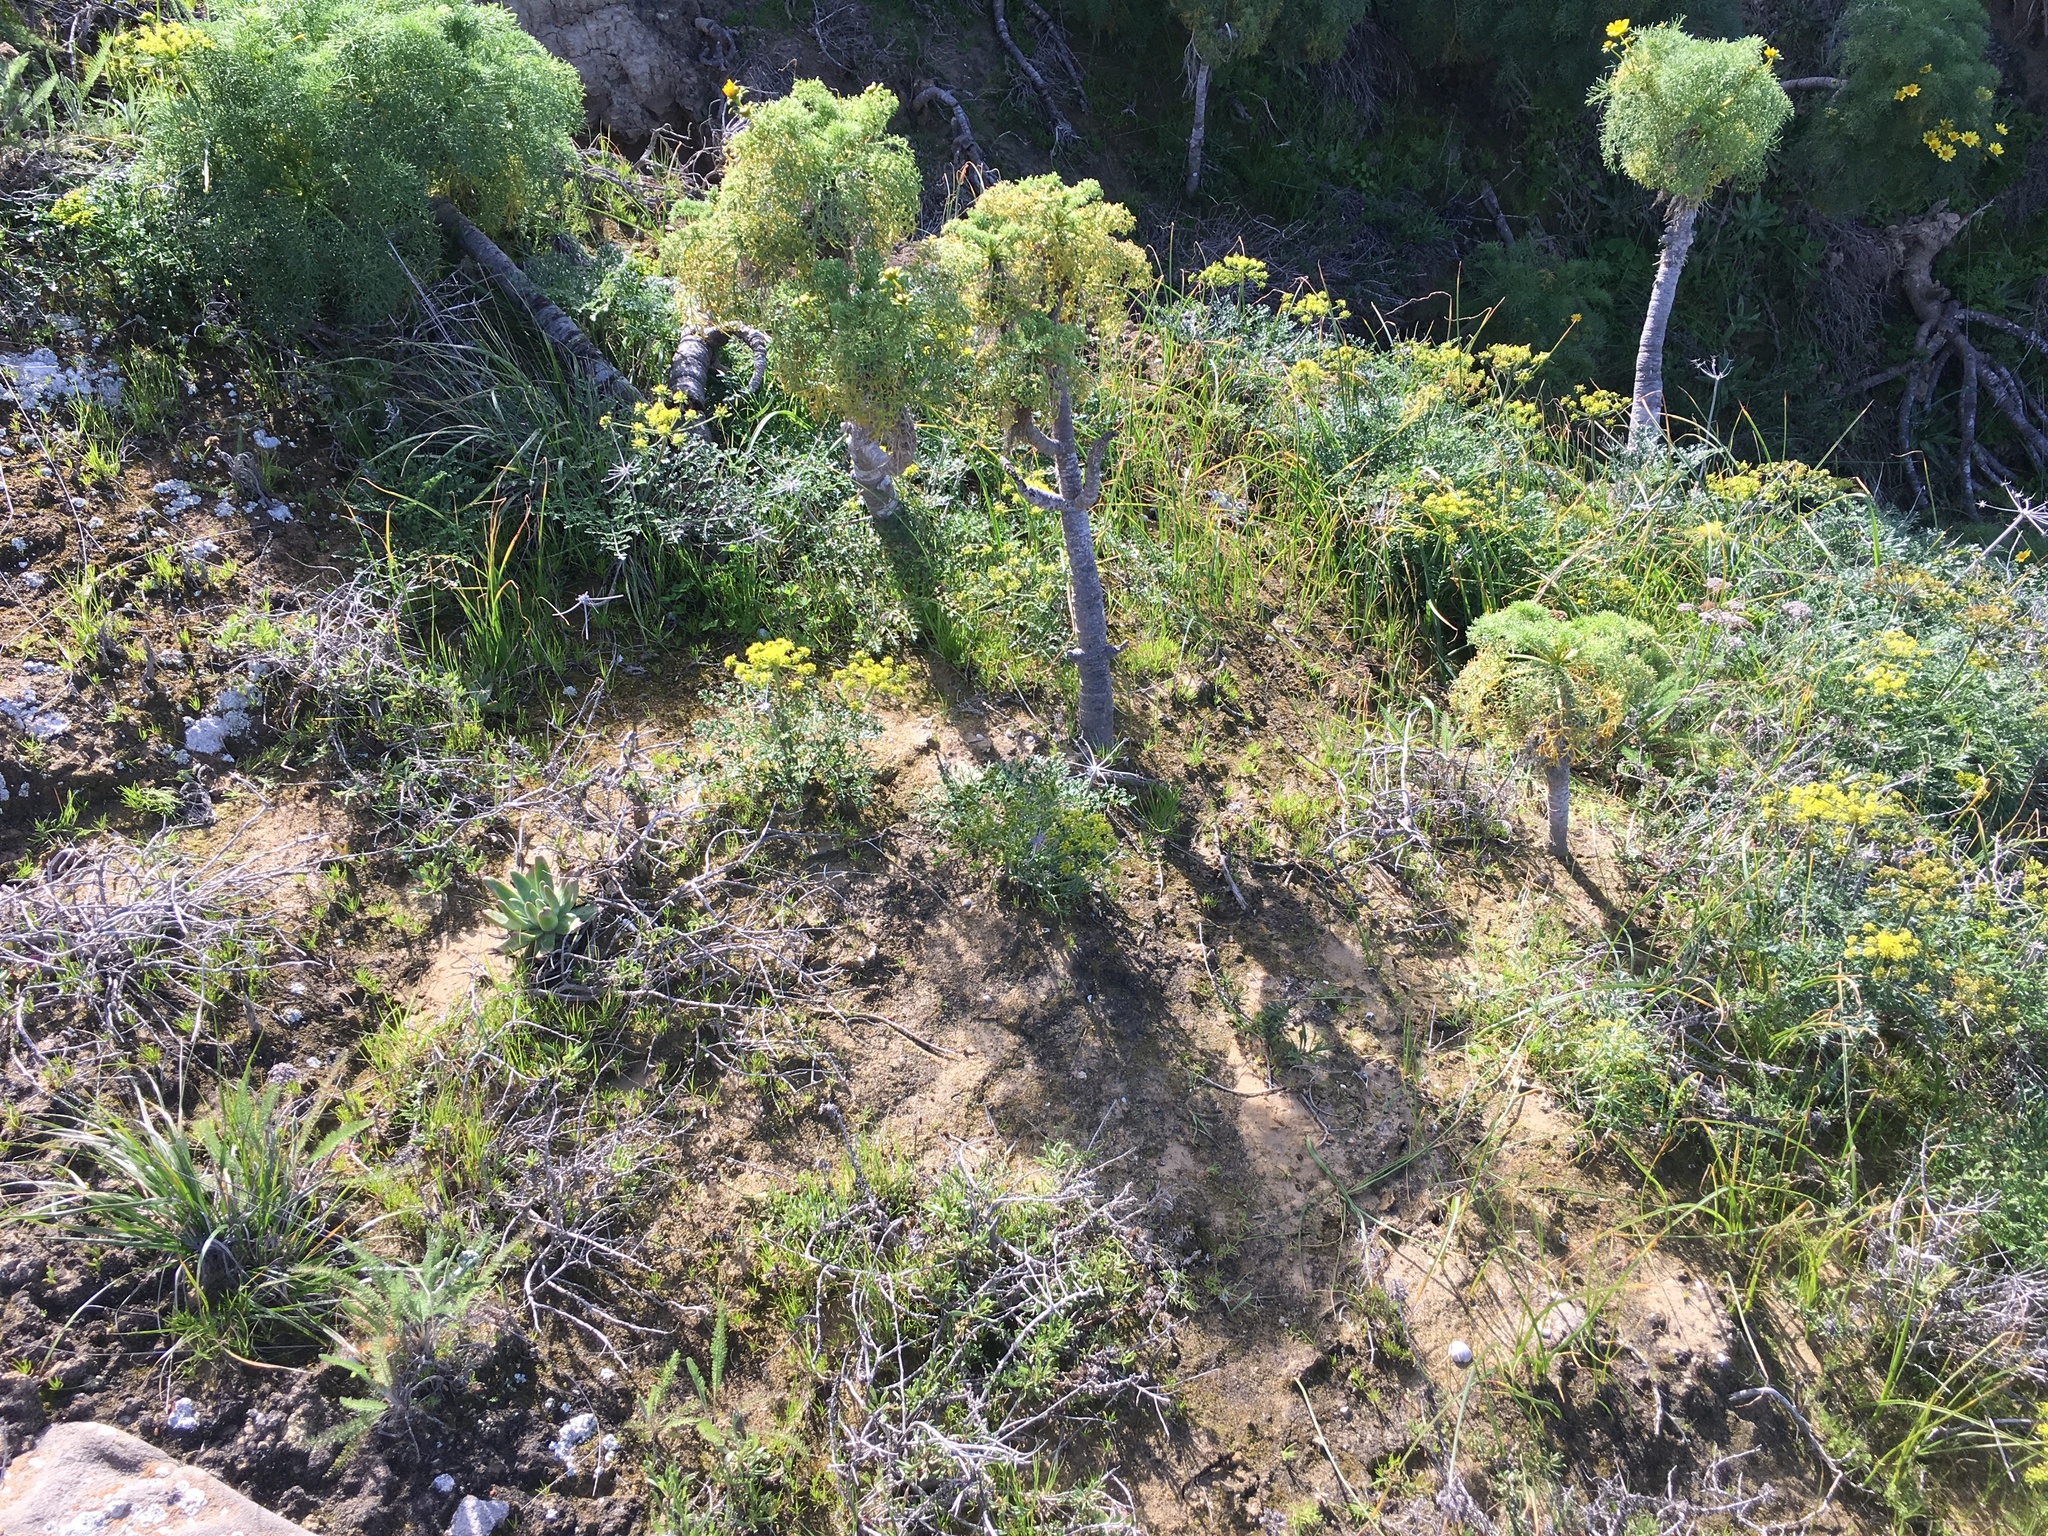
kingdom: Plantae
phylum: Tracheophyta
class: Magnoliopsida
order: Apiales
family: Apiaceae
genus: Lomatium
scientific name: Lomatium insulare
